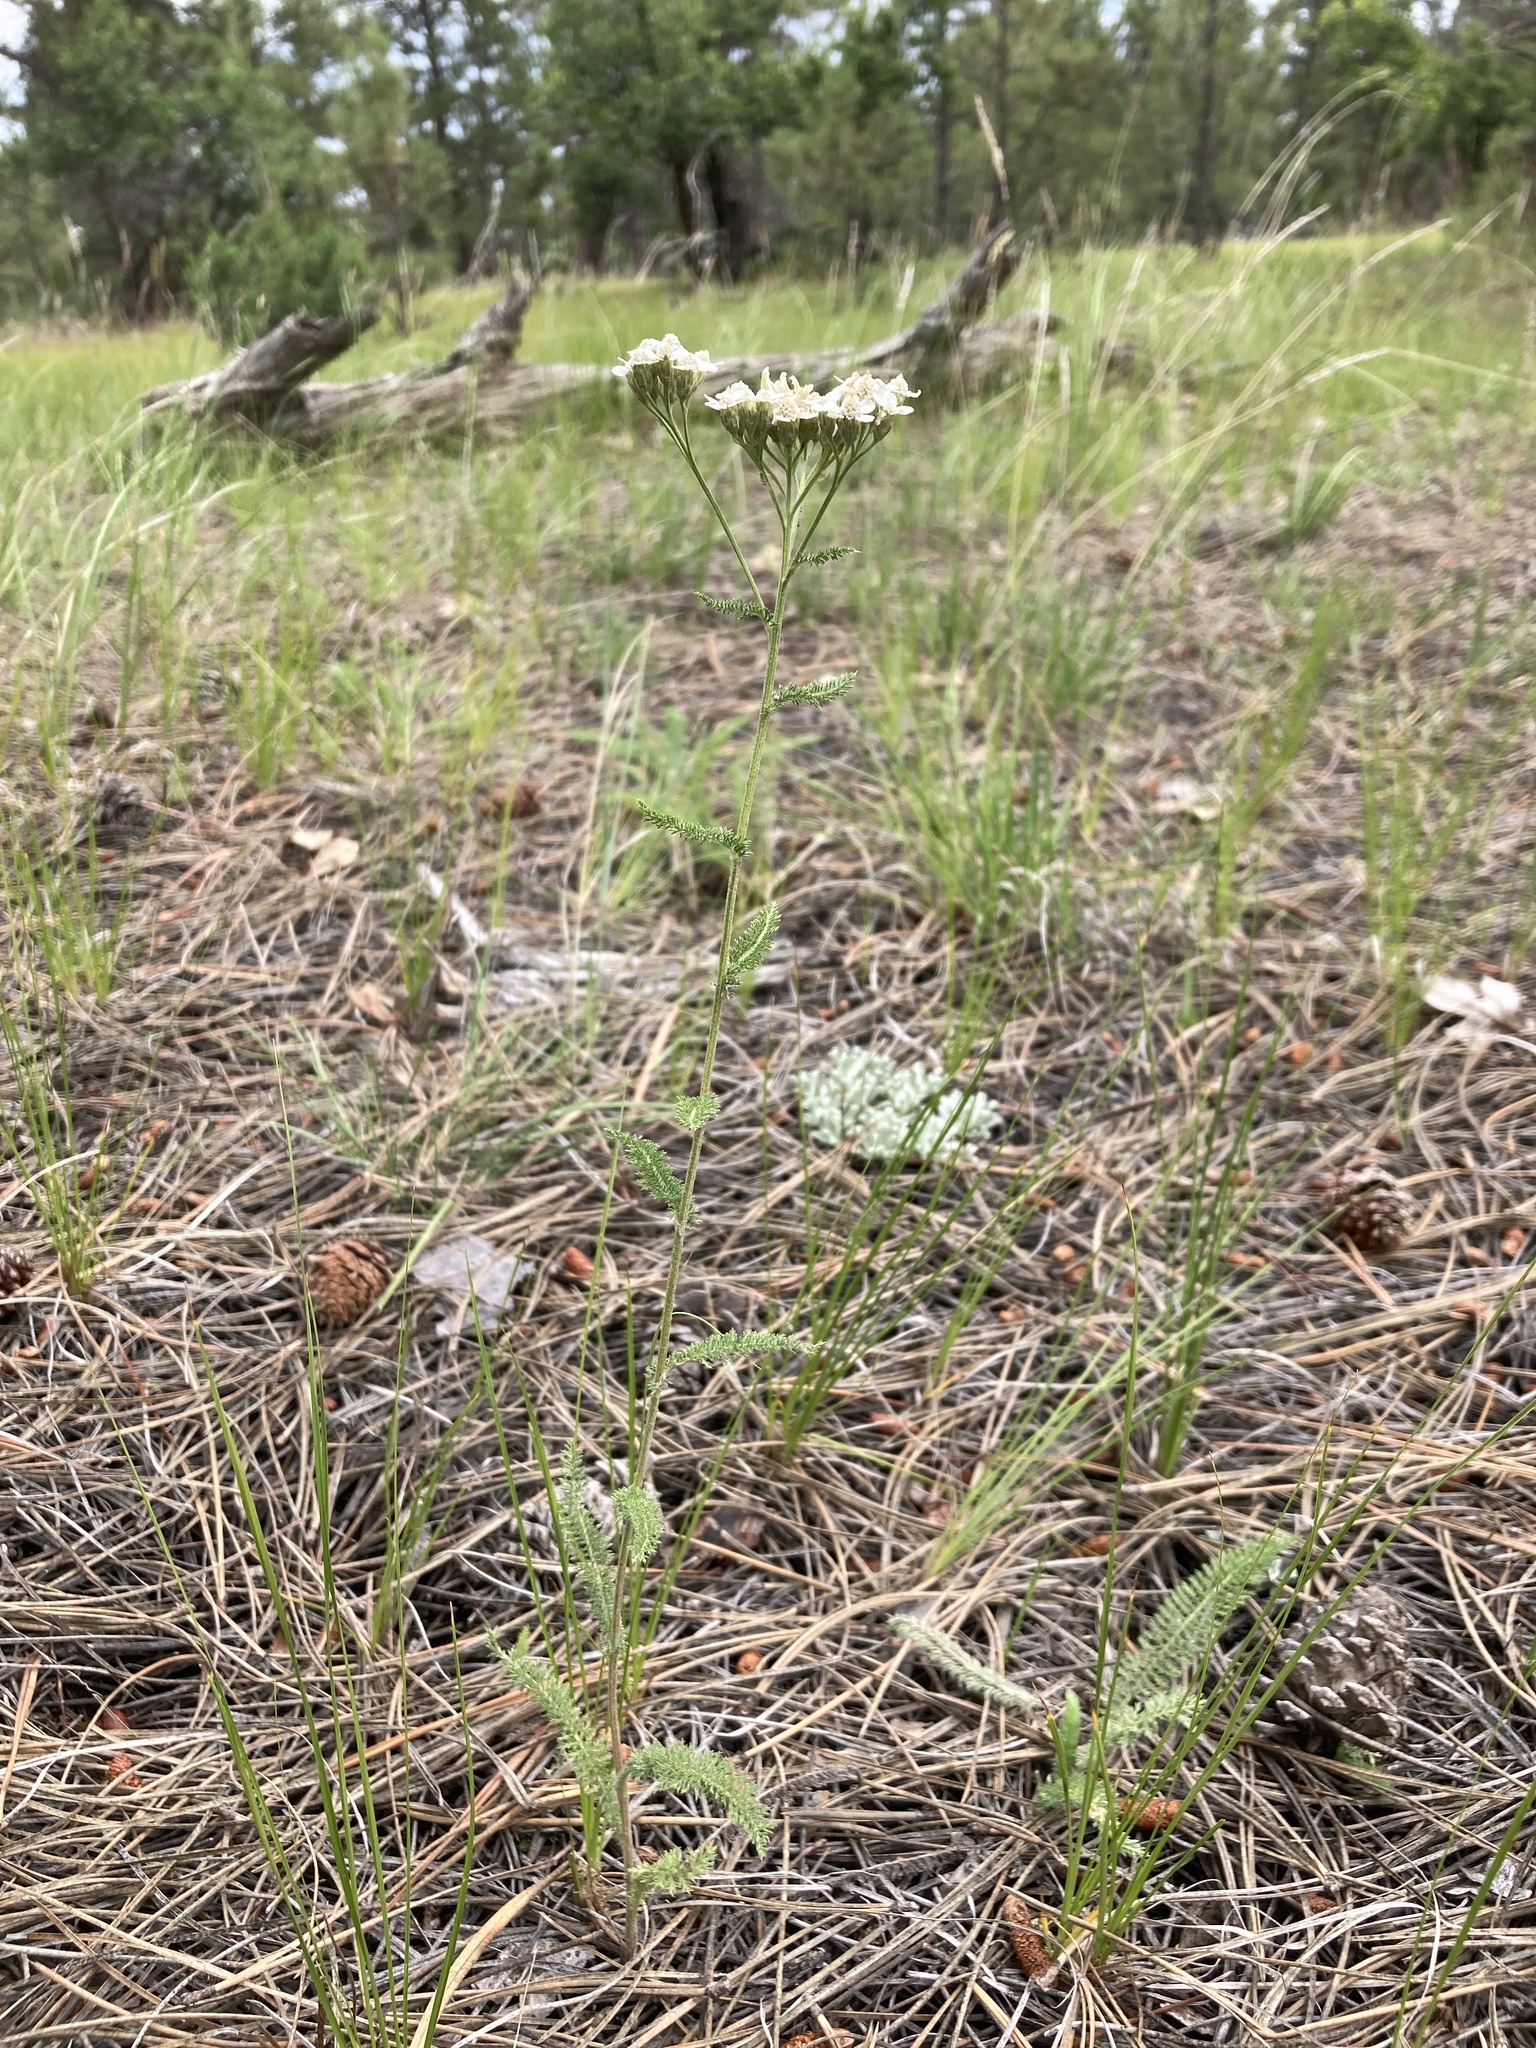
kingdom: Plantae
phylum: Tracheophyta
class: Magnoliopsida
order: Asterales
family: Asteraceae
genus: Achillea
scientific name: Achillea millefolium
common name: Yarrow
